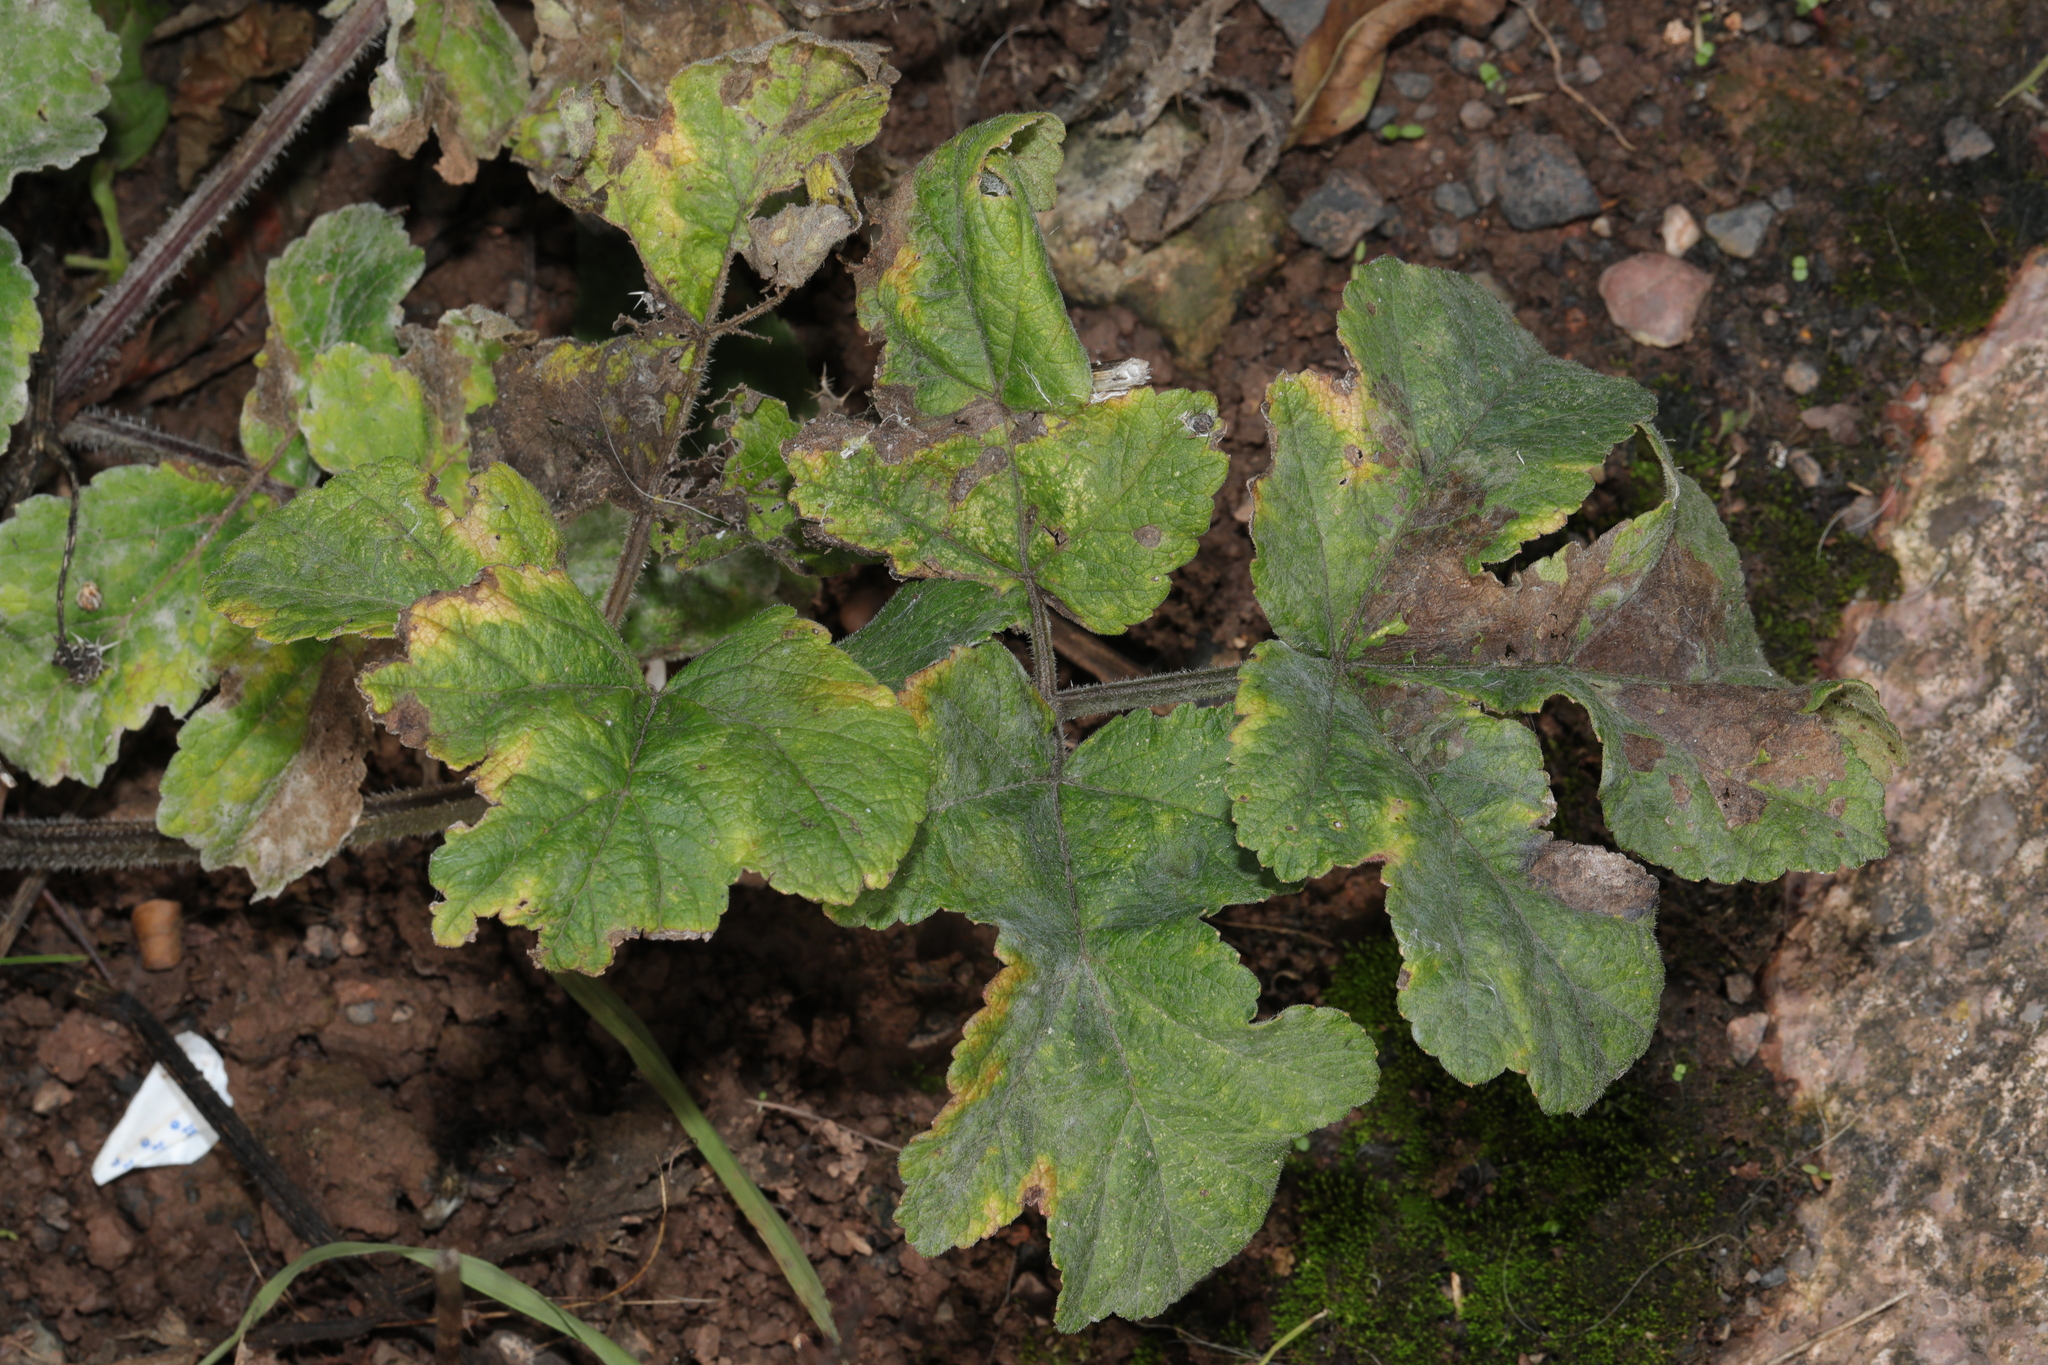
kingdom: Plantae
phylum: Tracheophyta
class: Magnoliopsida
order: Apiales
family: Apiaceae
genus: Heracleum
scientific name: Heracleum sphondylium
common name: Hogweed
